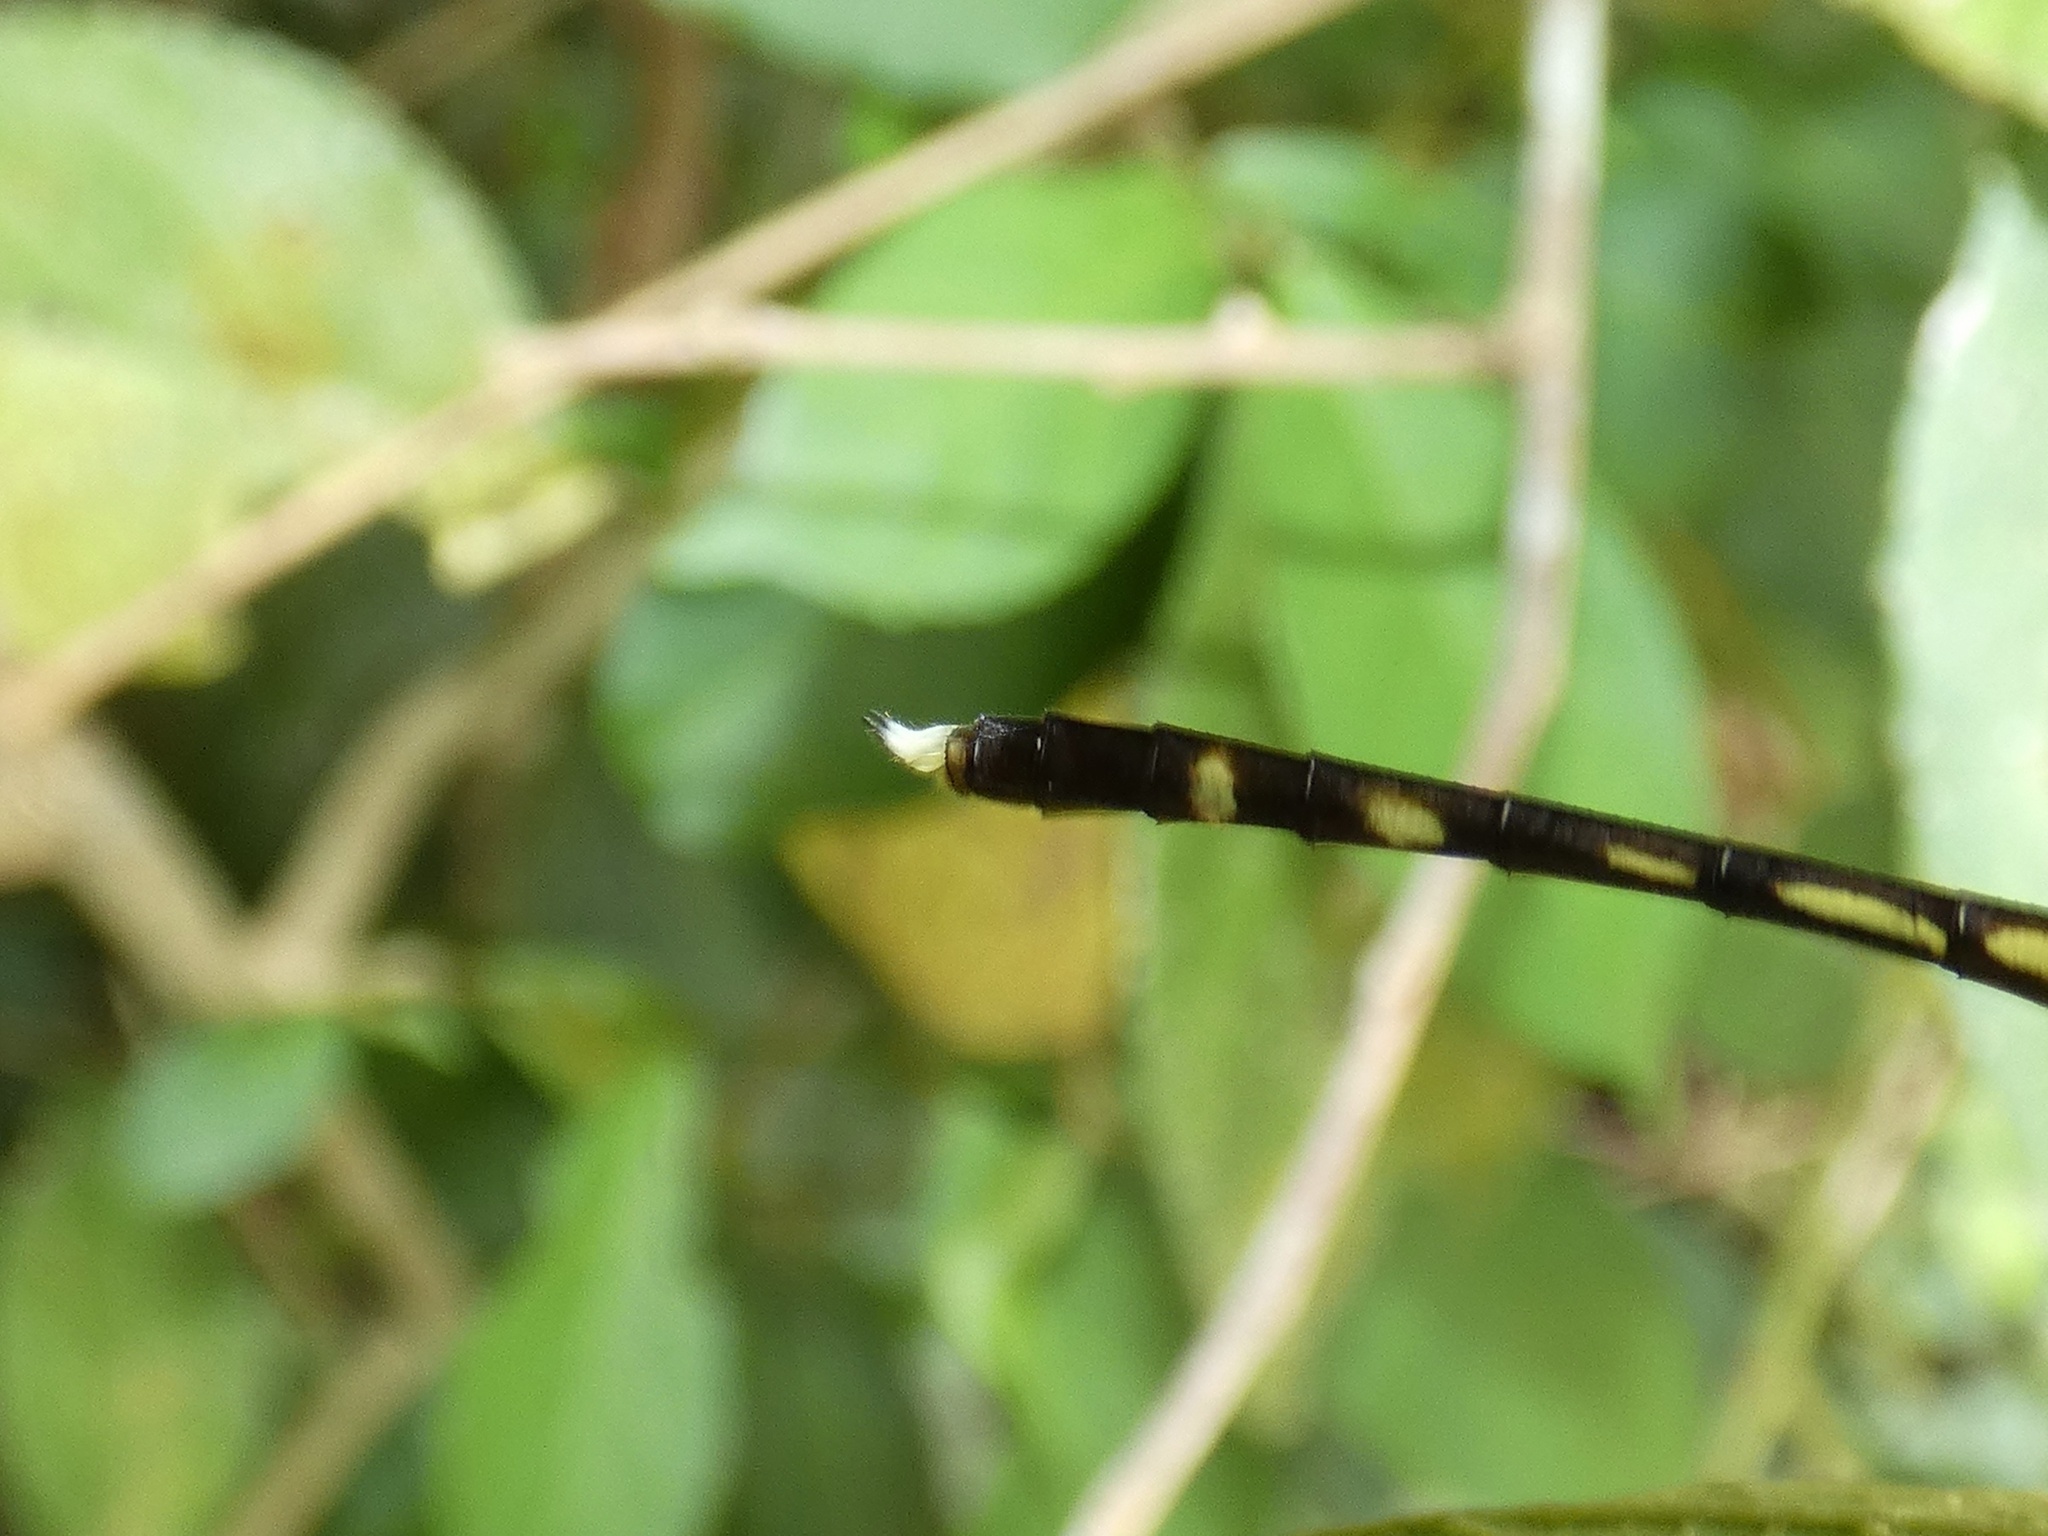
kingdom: Animalia
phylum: Arthropoda
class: Insecta
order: Odonata
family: Libellulidae
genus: Anatya
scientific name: Anatya guttata
